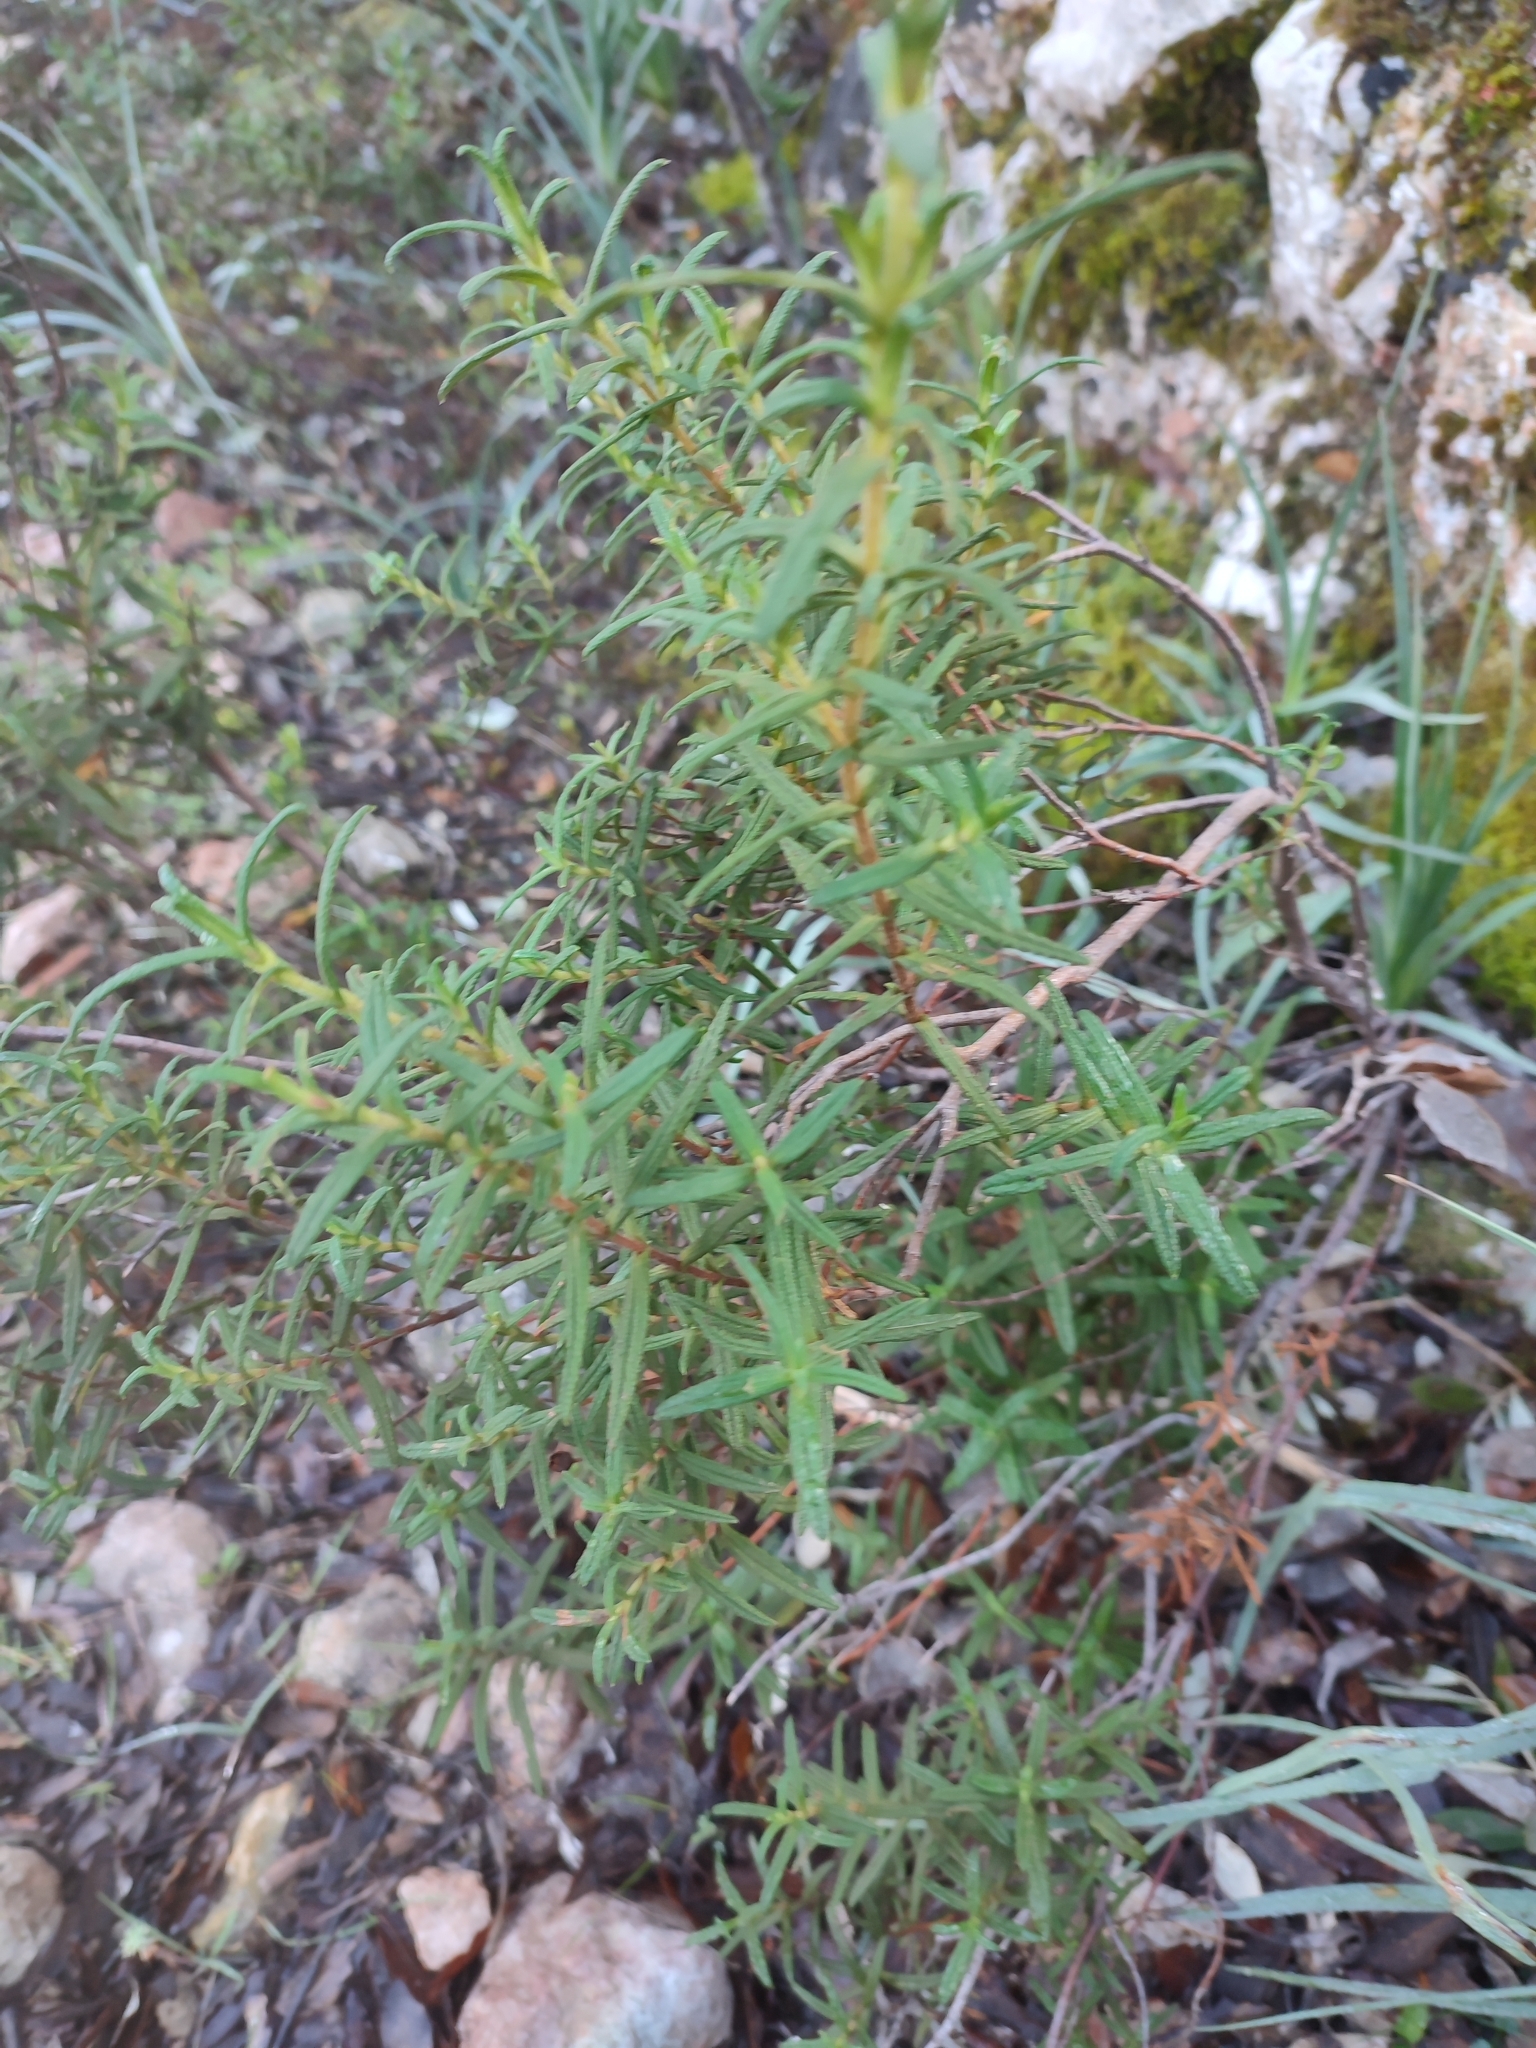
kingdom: Plantae
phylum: Tracheophyta
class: Magnoliopsida
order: Malvales
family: Cistaceae
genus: Cistus
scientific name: Cistus monspeliensis
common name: Montpelier cistus
